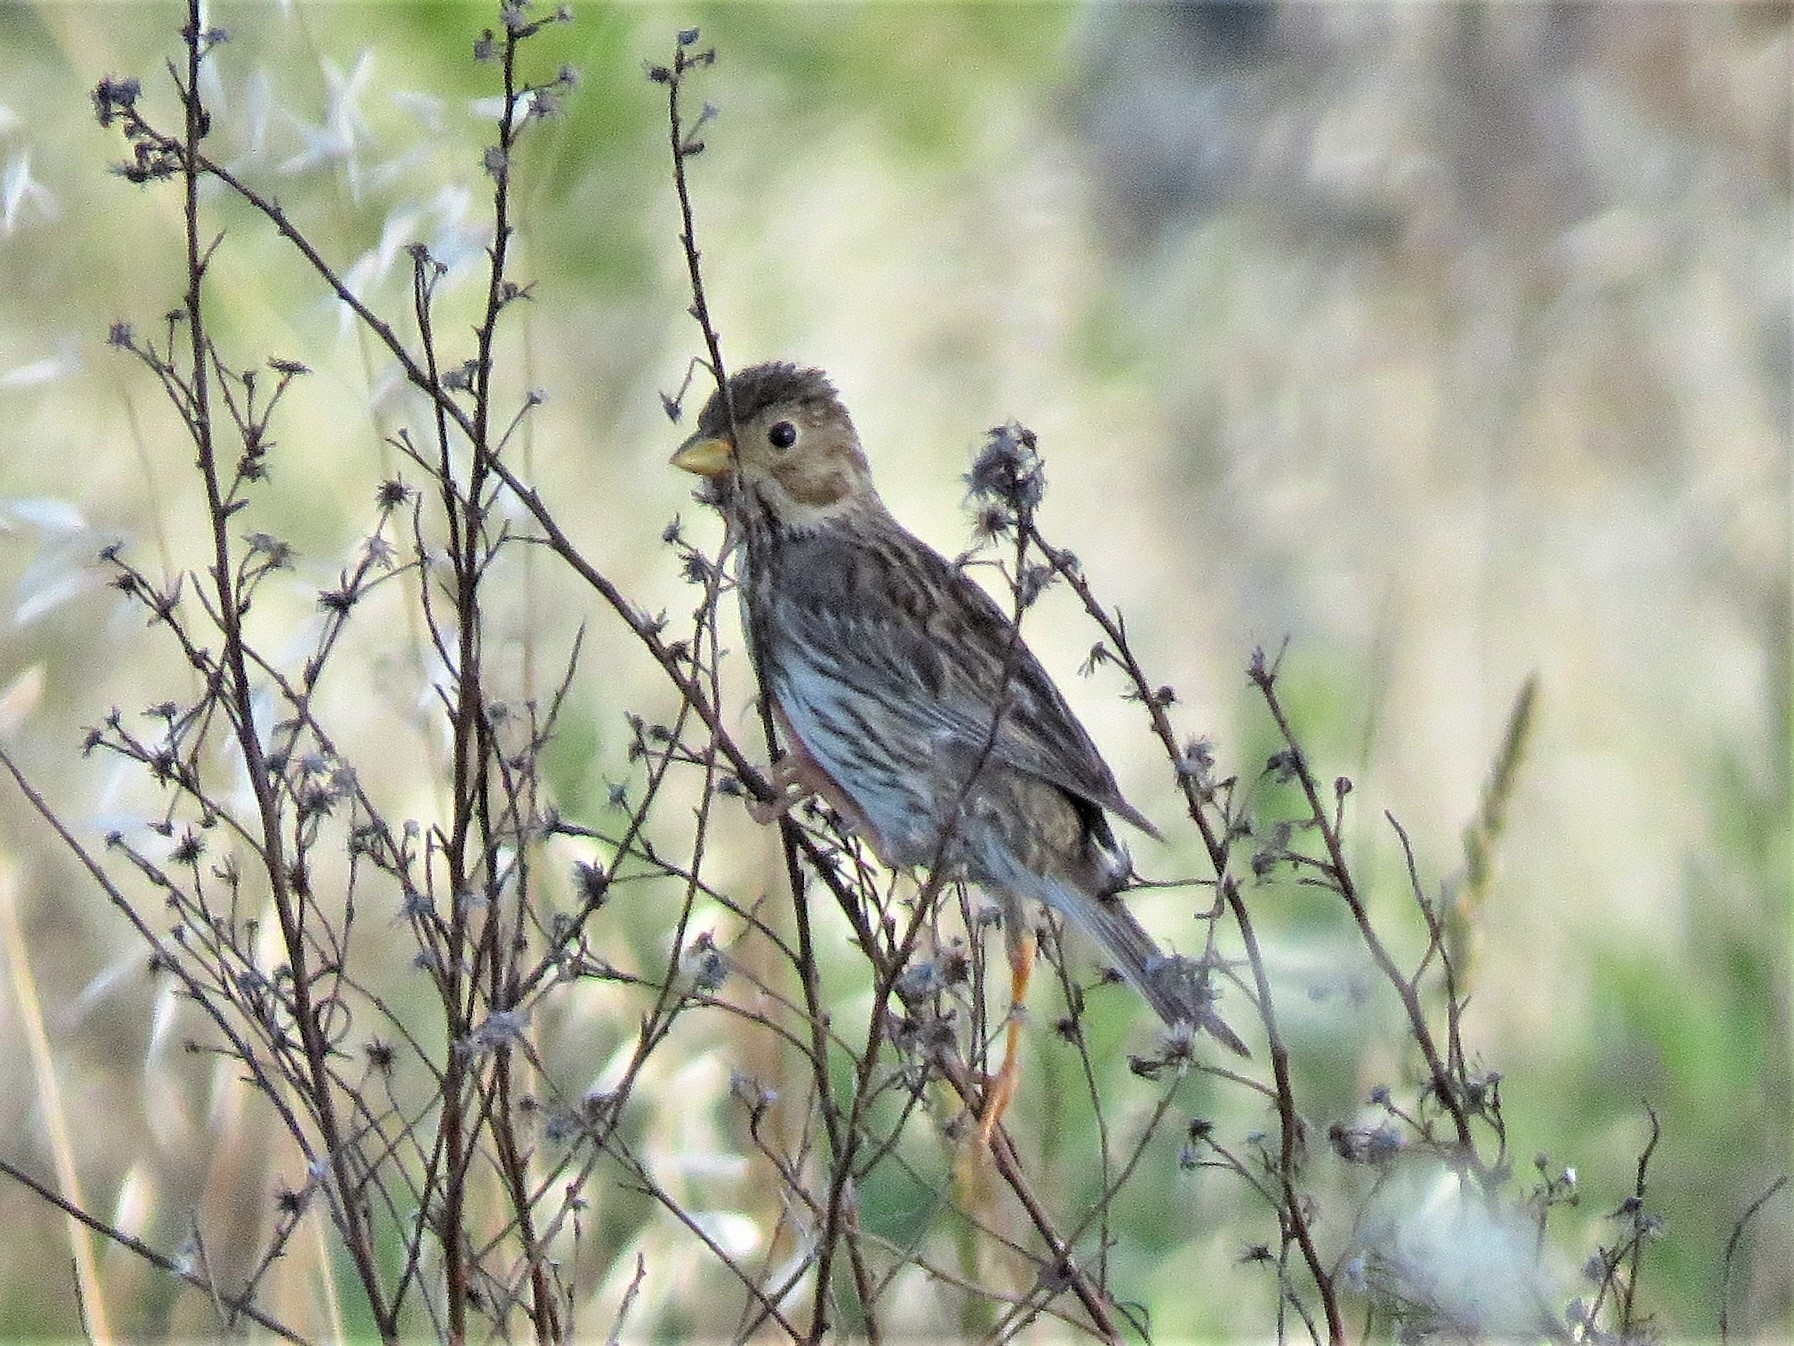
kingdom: Animalia
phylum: Chordata
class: Aves
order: Passeriformes
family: Emberizidae
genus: Emberiza
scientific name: Emberiza calandra
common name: Corn bunting
